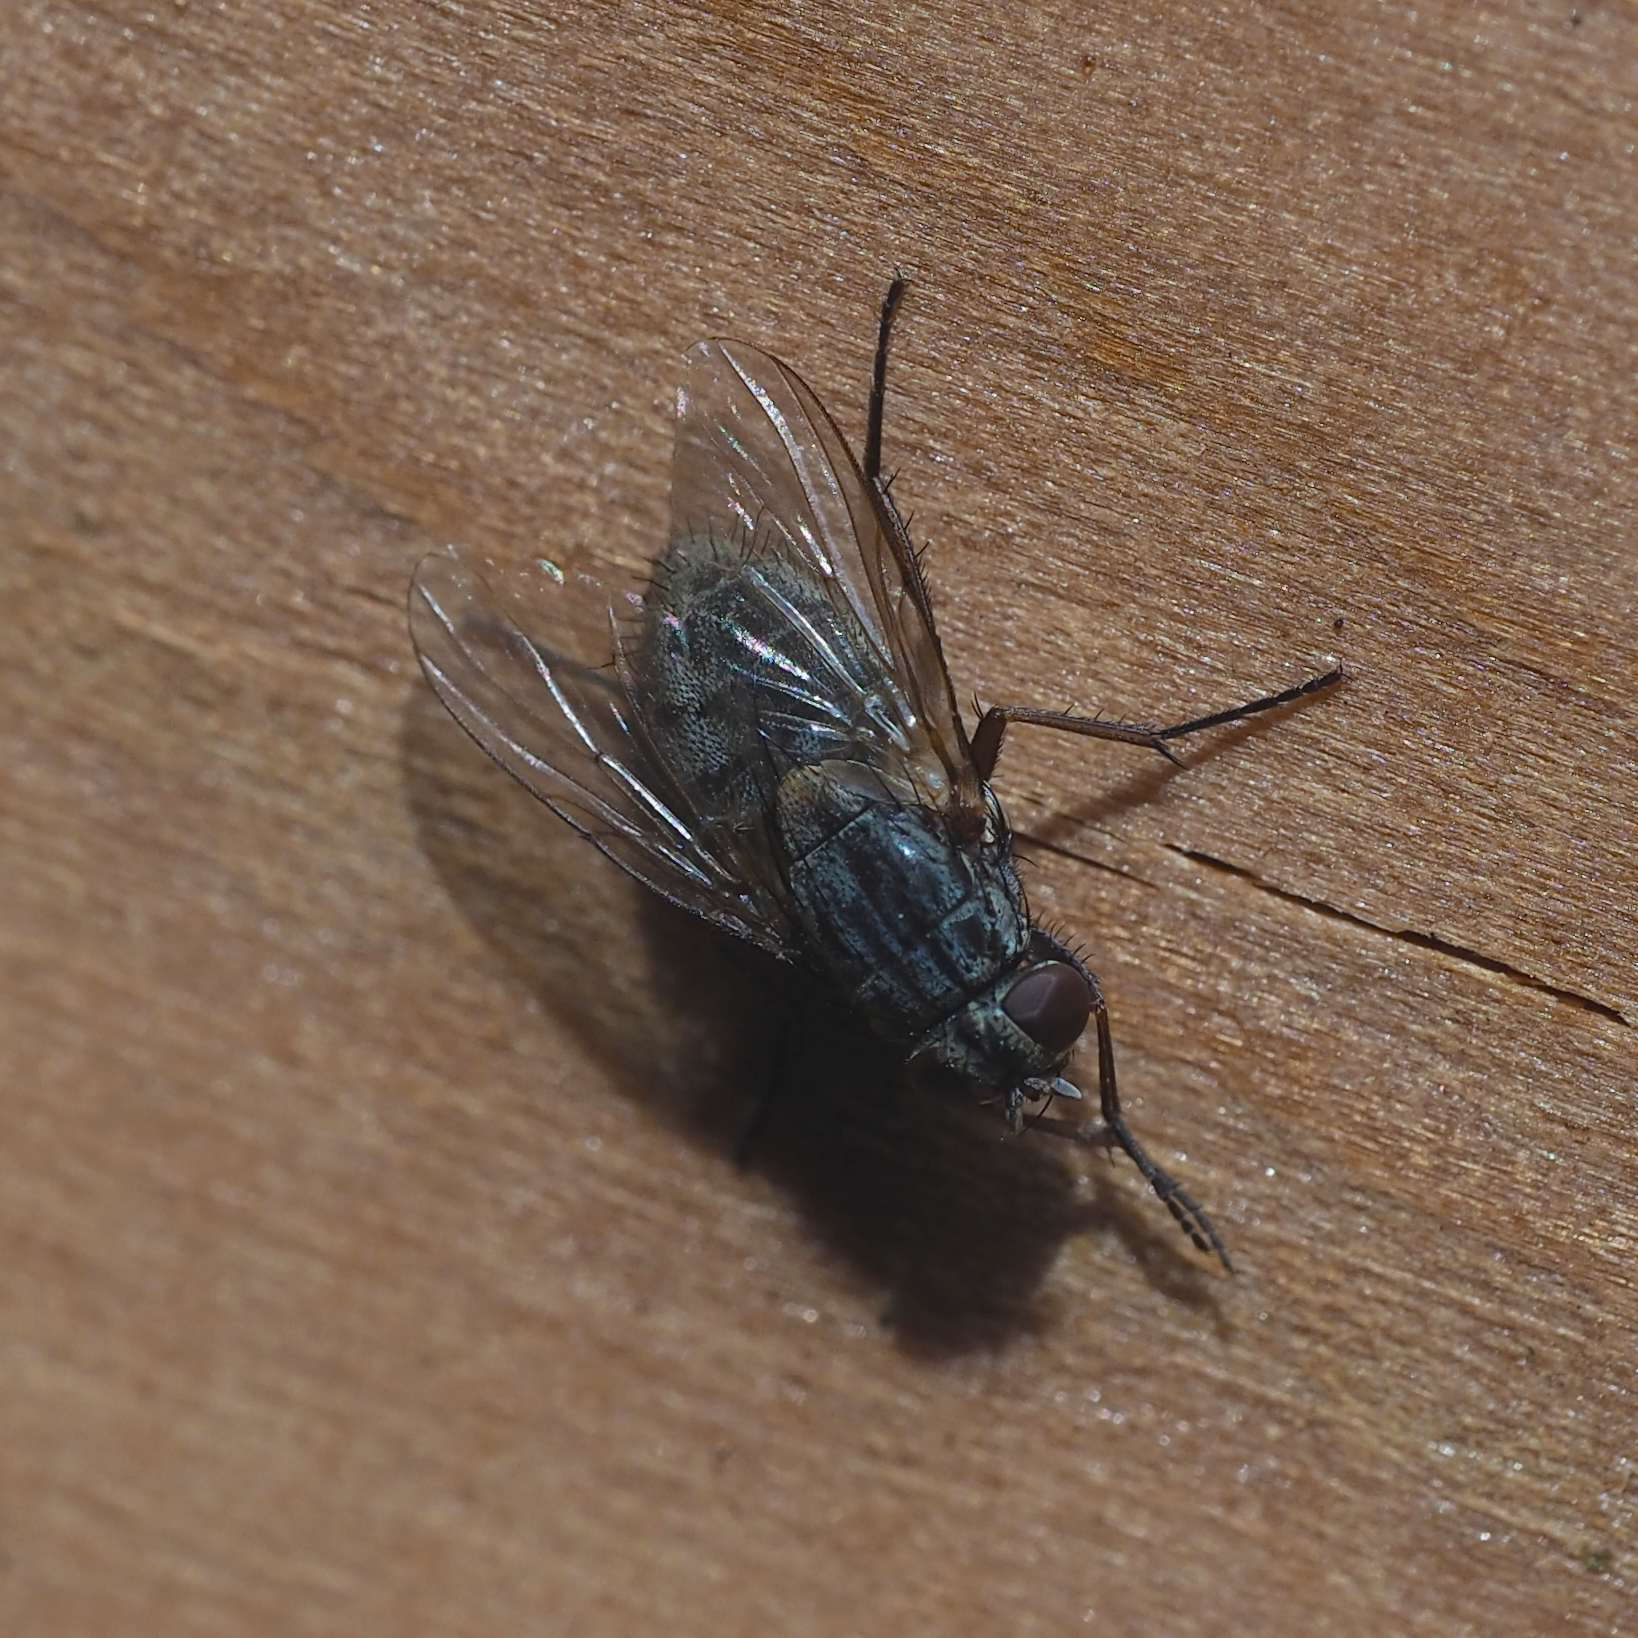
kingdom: Animalia
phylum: Arthropoda
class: Insecta
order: Diptera
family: Muscidae
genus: Muscina
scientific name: Muscina stabulans
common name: False stable fly
